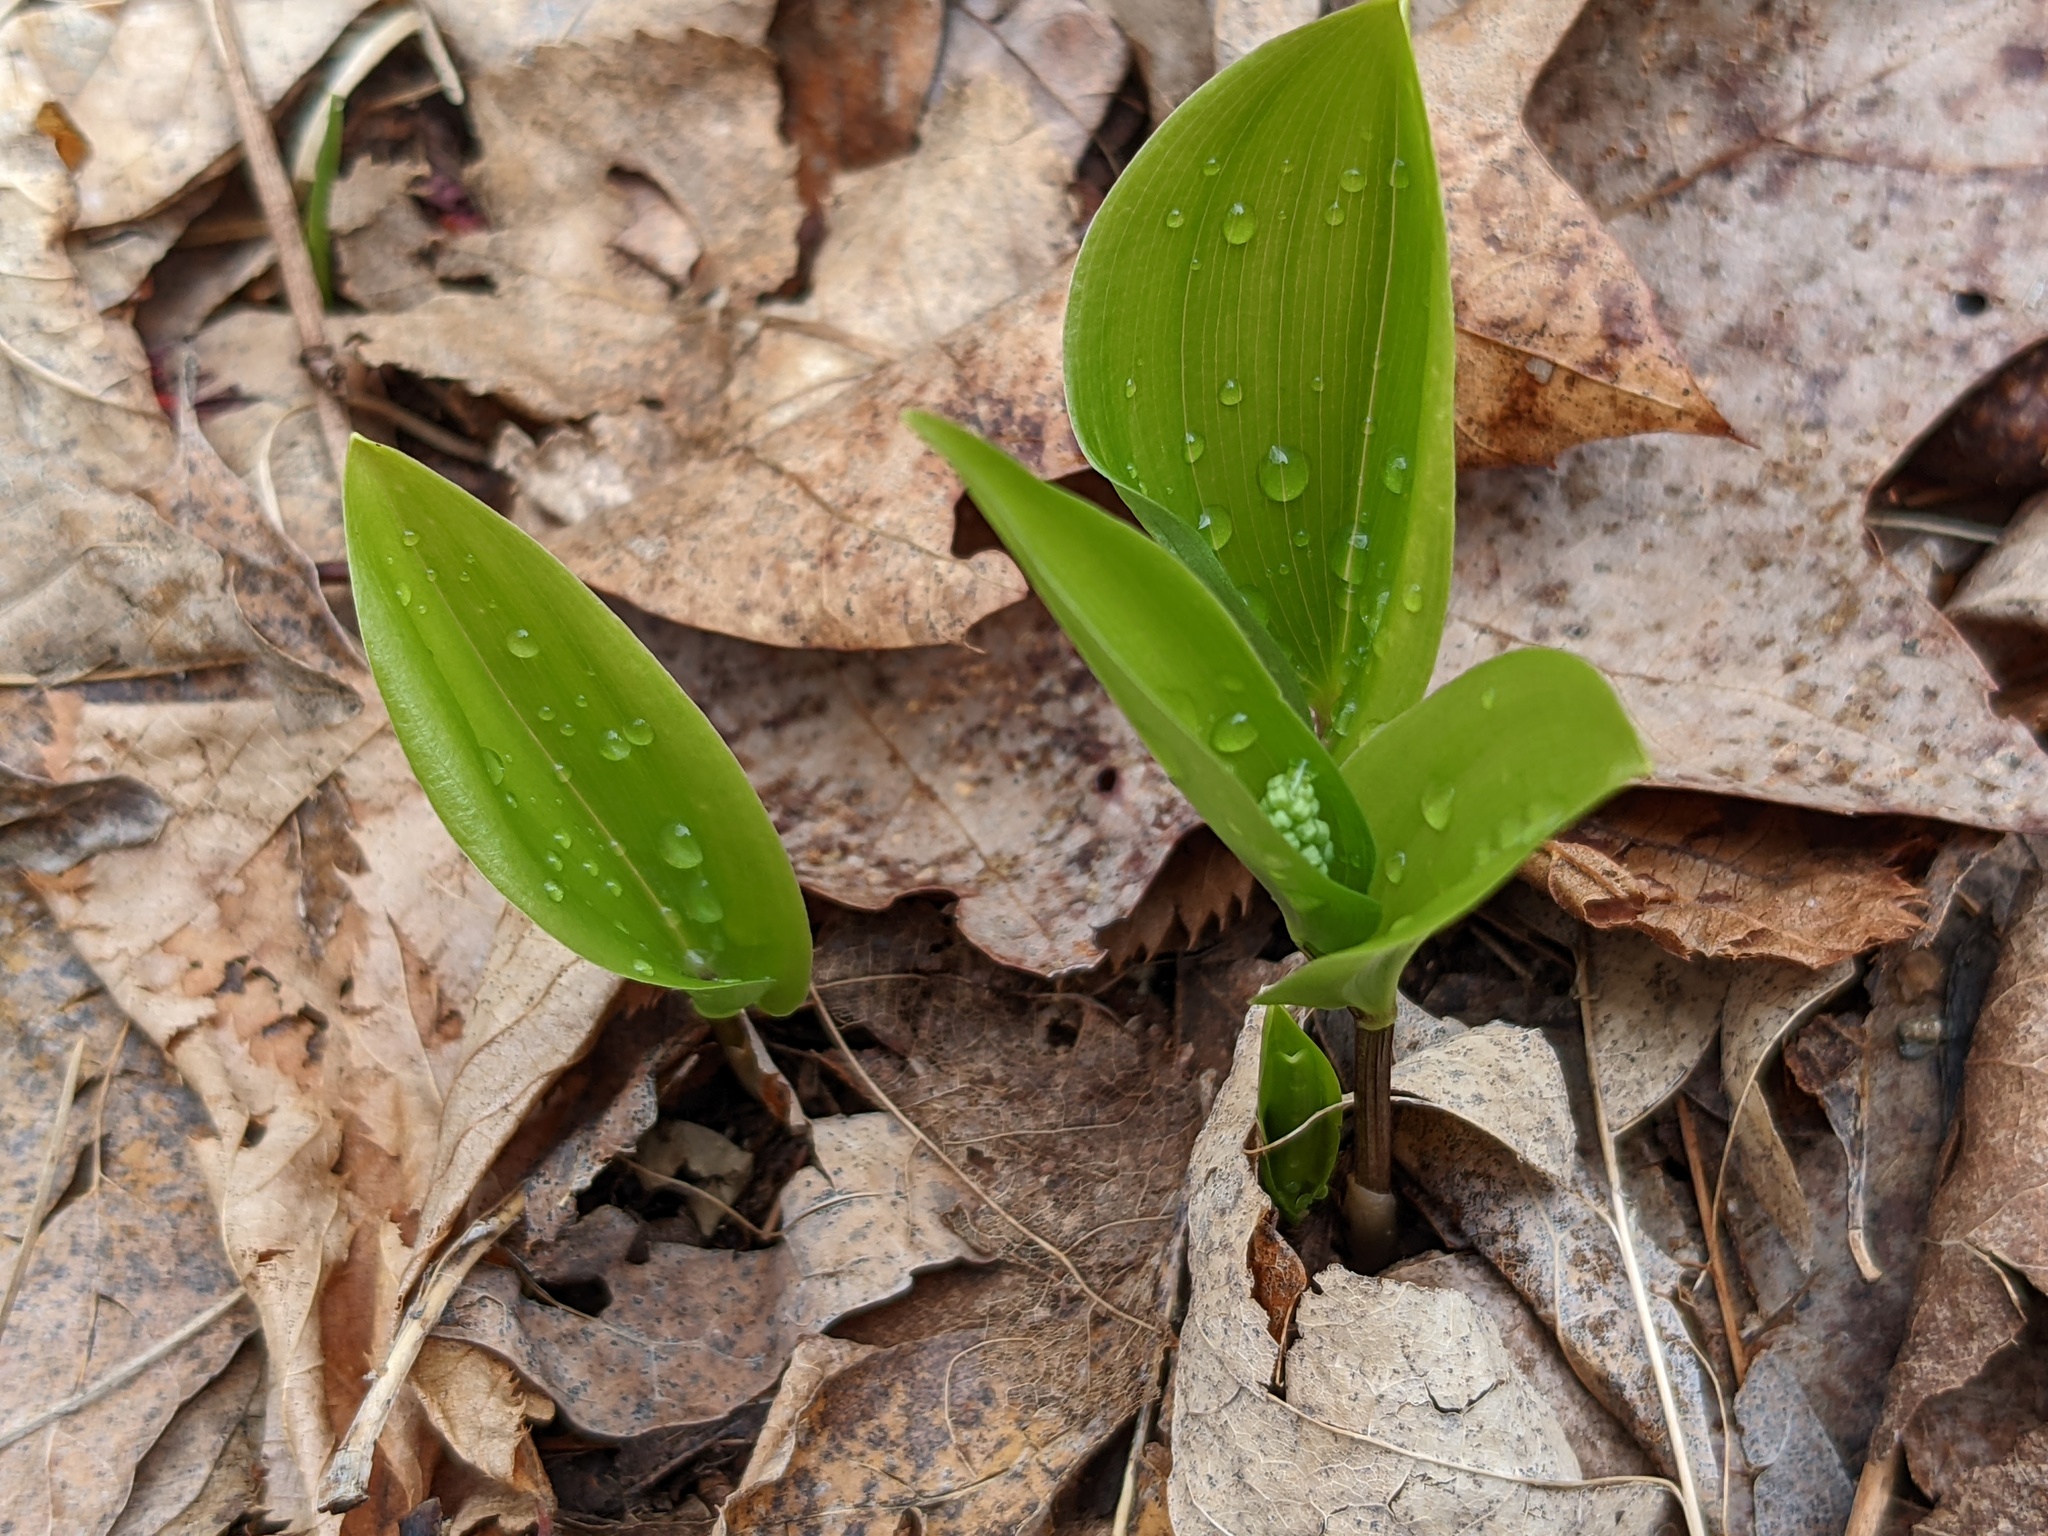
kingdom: Plantae
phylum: Tracheophyta
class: Liliopsida
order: Asparagales
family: Asparagaceae
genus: Maianthemum
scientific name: Maianthemum canadense
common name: False lily-of-the-valley
